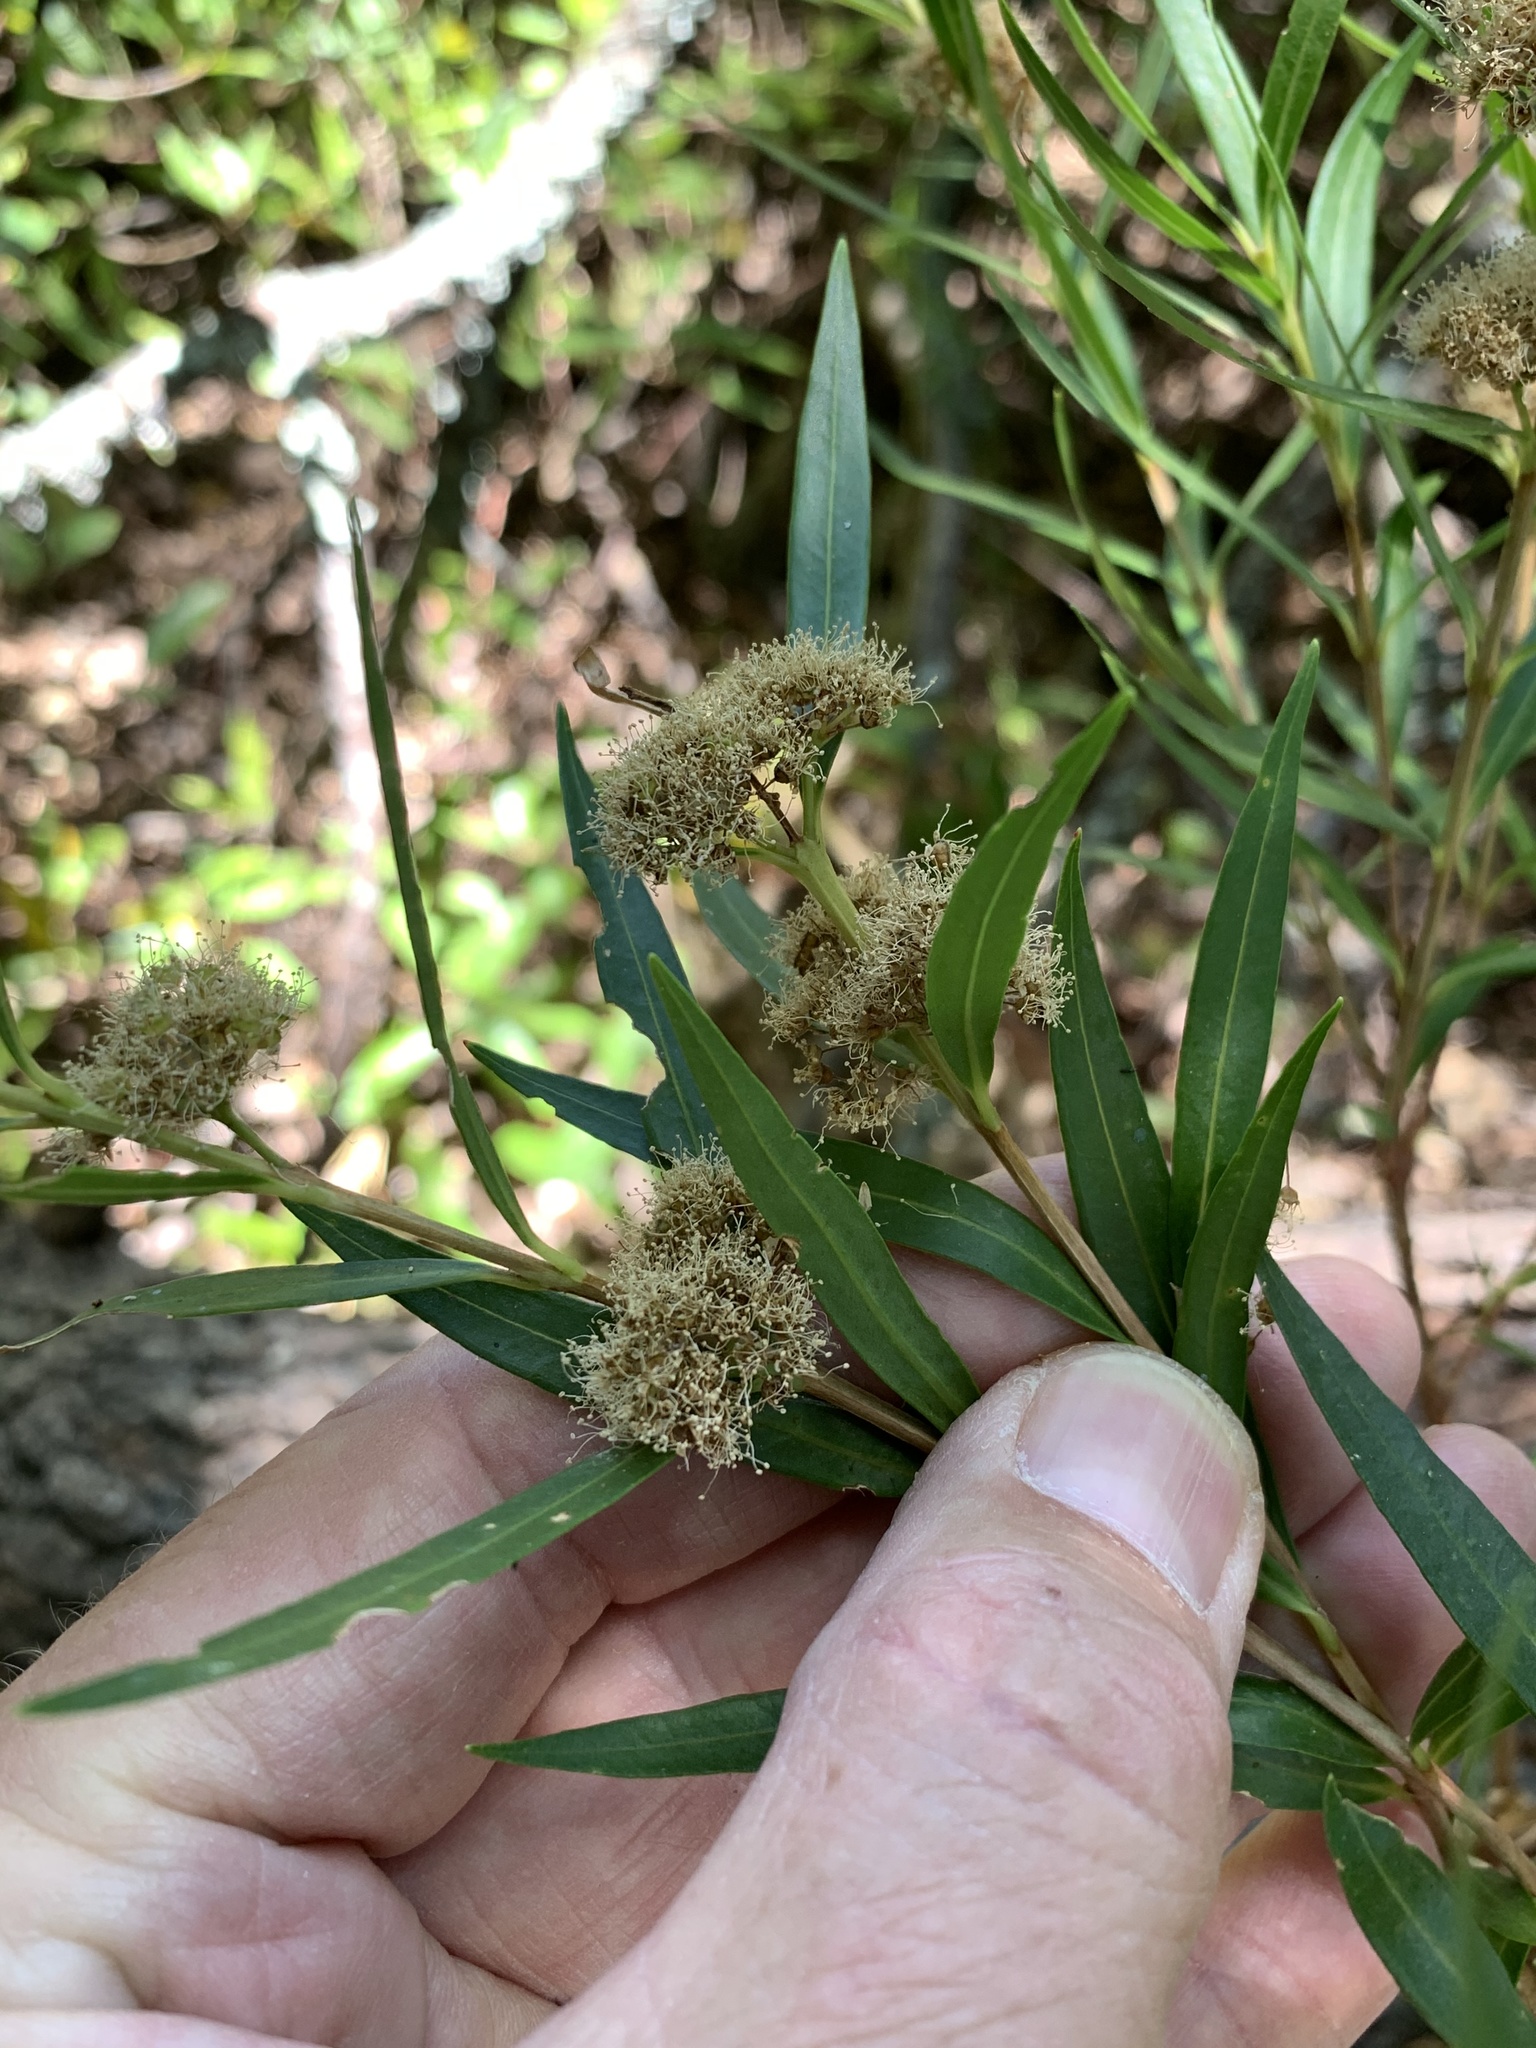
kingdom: Plantae
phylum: Tracheophyta
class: Magnoliopsida
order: Myrtales
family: Myrtaceae
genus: Callistemon
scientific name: Callistemon lanceolatus
